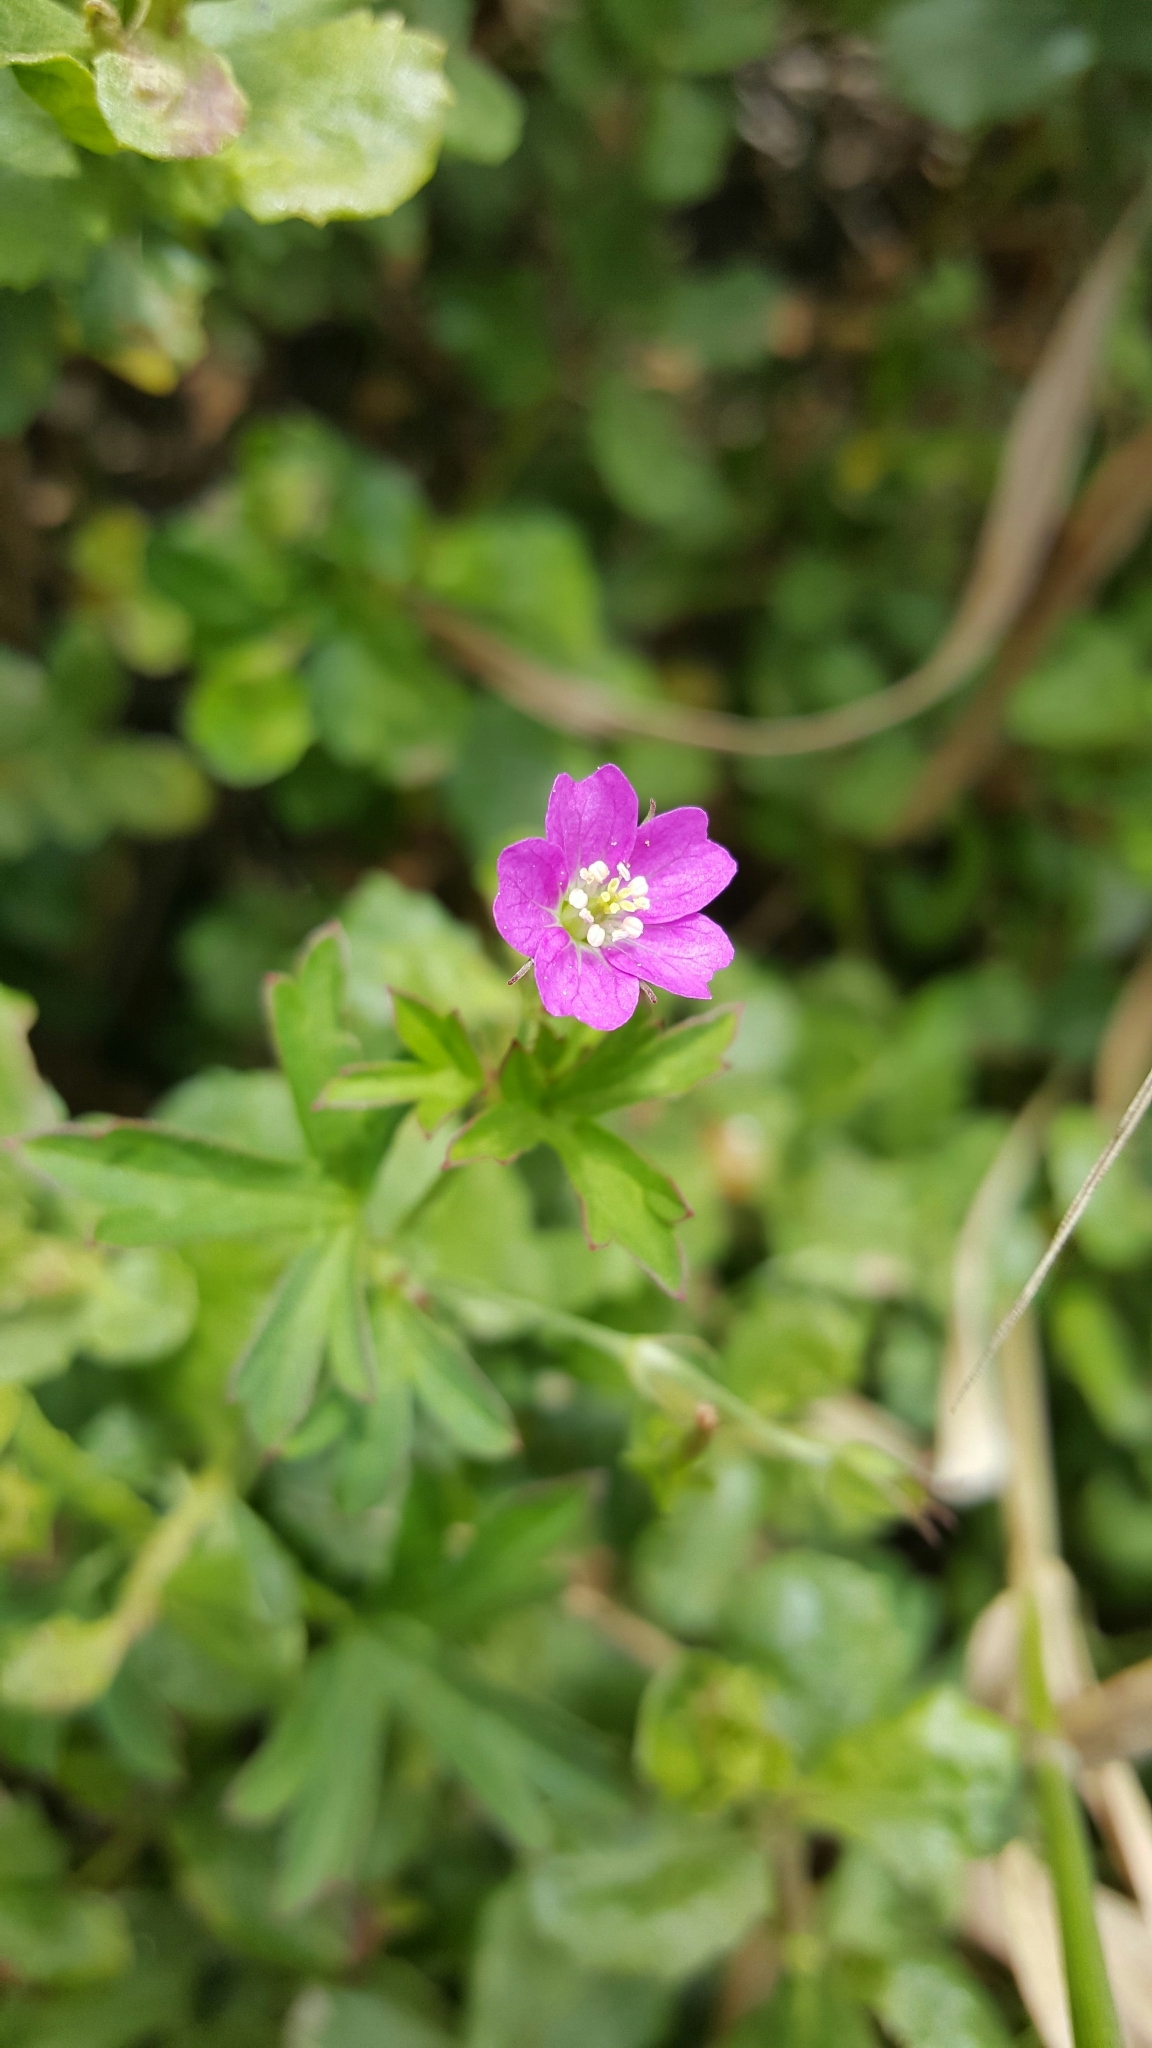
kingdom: Plantae
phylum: Tracheophyta
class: Magnoliopsida
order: Geraniales
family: Geraniaceae
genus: Geranium
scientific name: Geranium core-core
